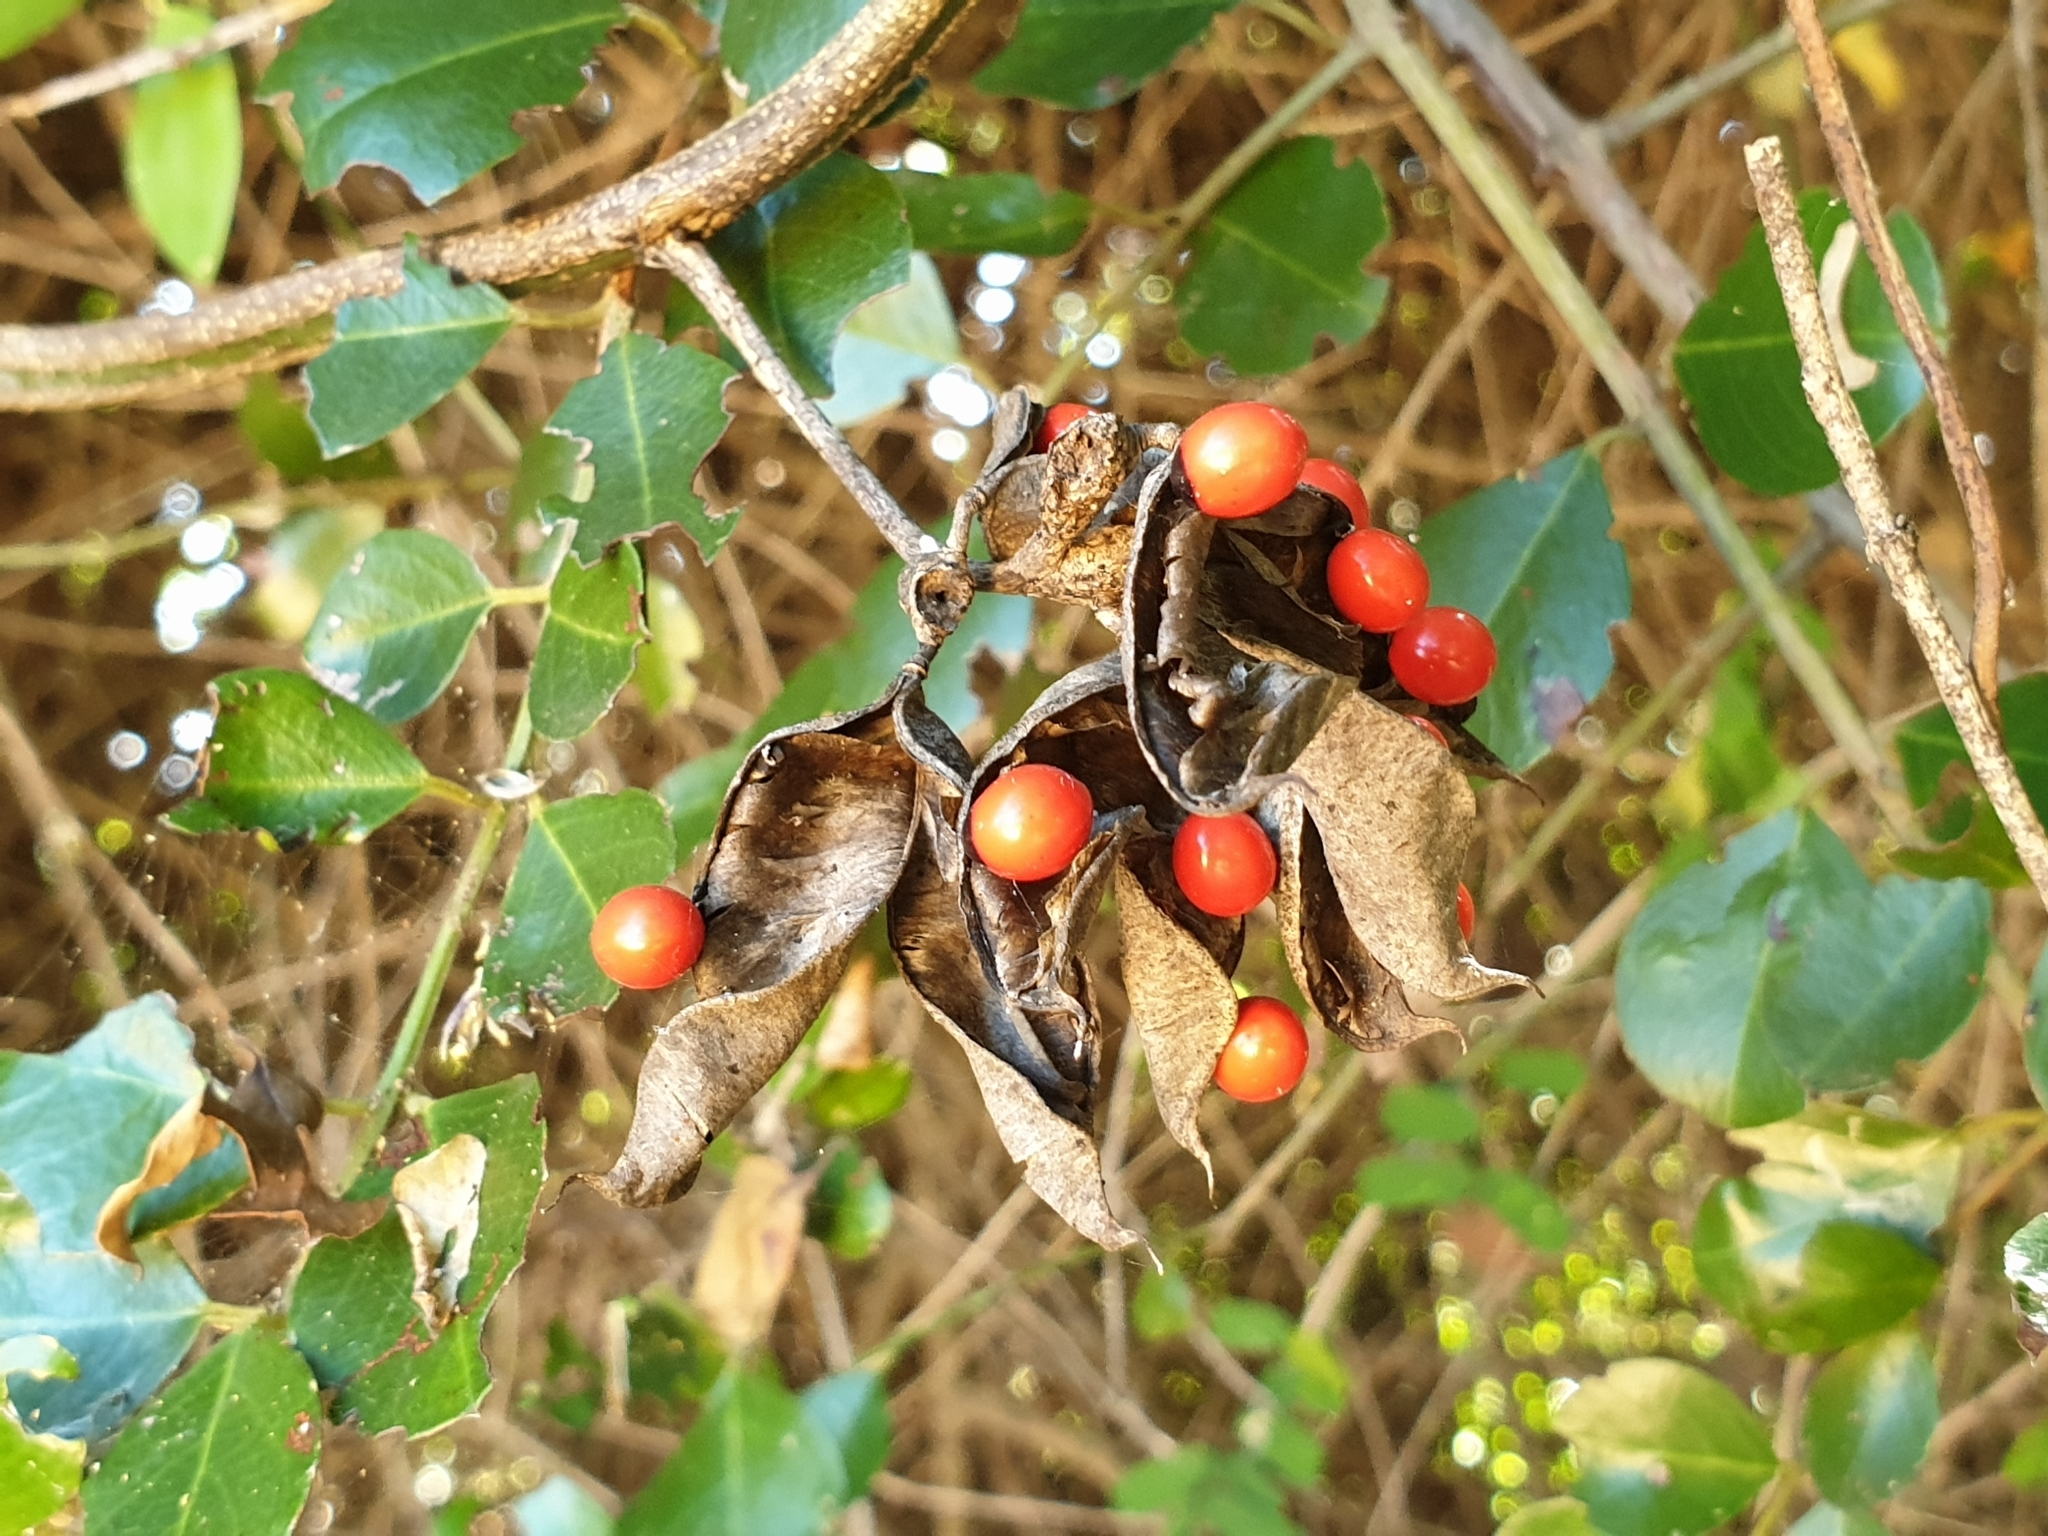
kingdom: Plantae
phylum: Tracheophyta
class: Magnoliopsida
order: Fabales
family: Fabaceae
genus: Abrus
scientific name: Abrus precatorius
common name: Rosarypea
